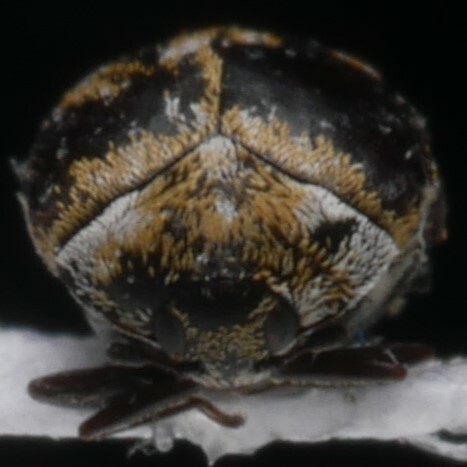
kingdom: Animalia
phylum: Arthropoda
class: Insecta
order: Coleoptera
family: Dermestidae
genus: Anthrenus
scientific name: Anthrenus verbasci
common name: Varied carpet beetle
